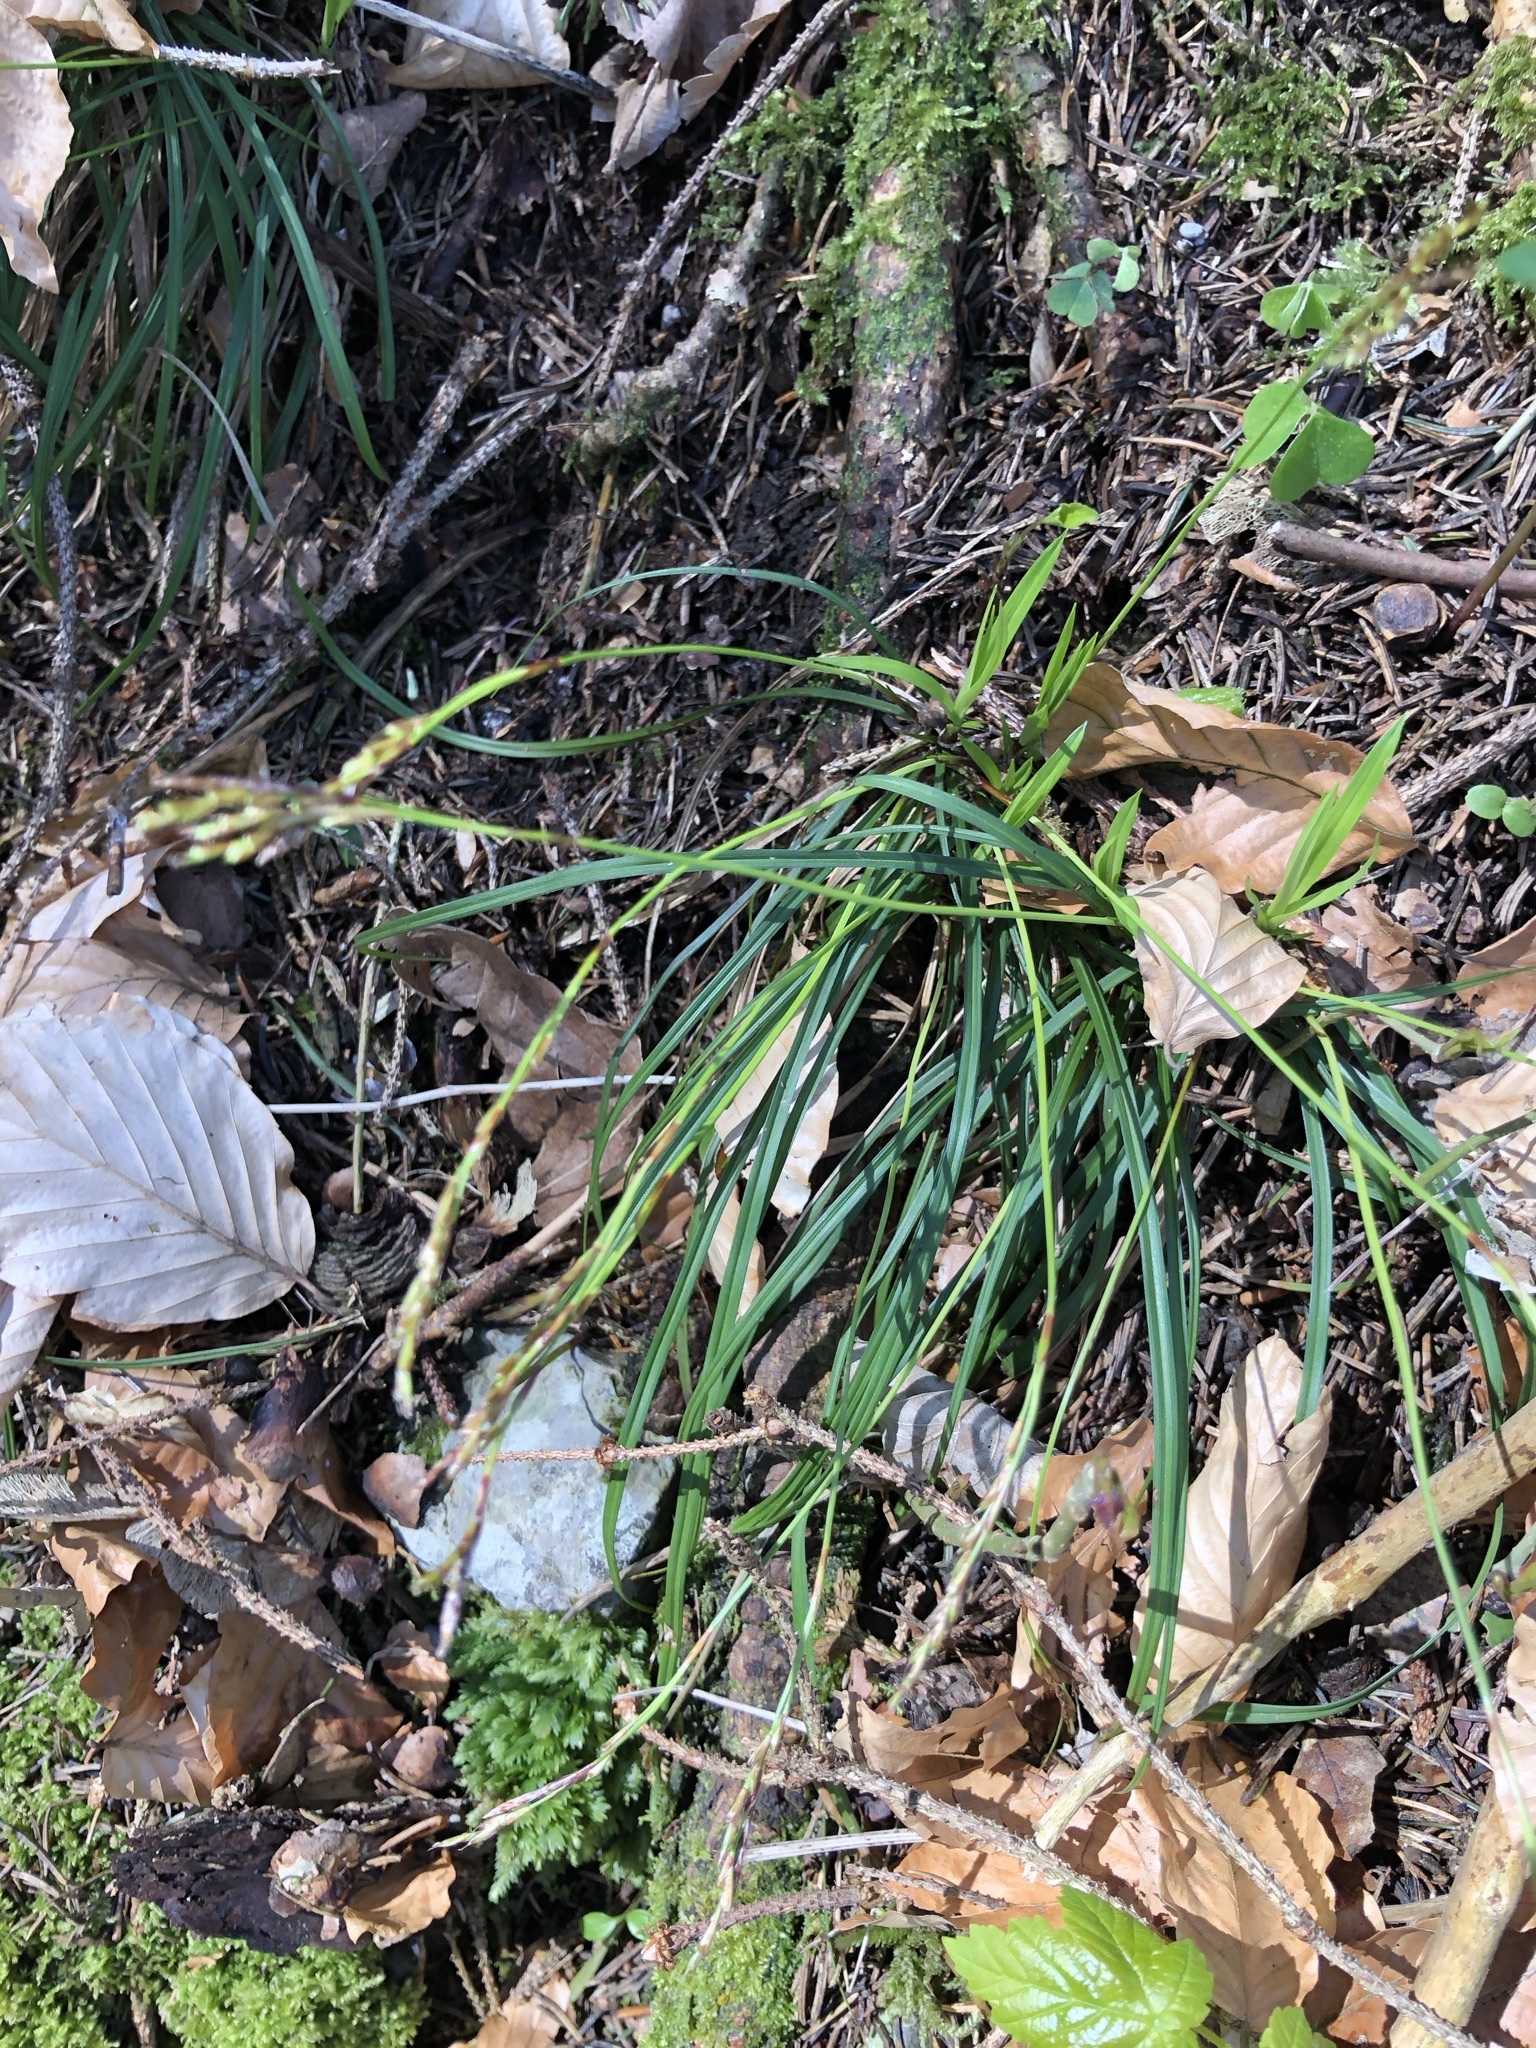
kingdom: Plantae
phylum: Tracheophyta
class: Liliopsida
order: Poales
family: Cyperaceae
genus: Carex
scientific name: Carex digitata
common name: Fingered sedge
